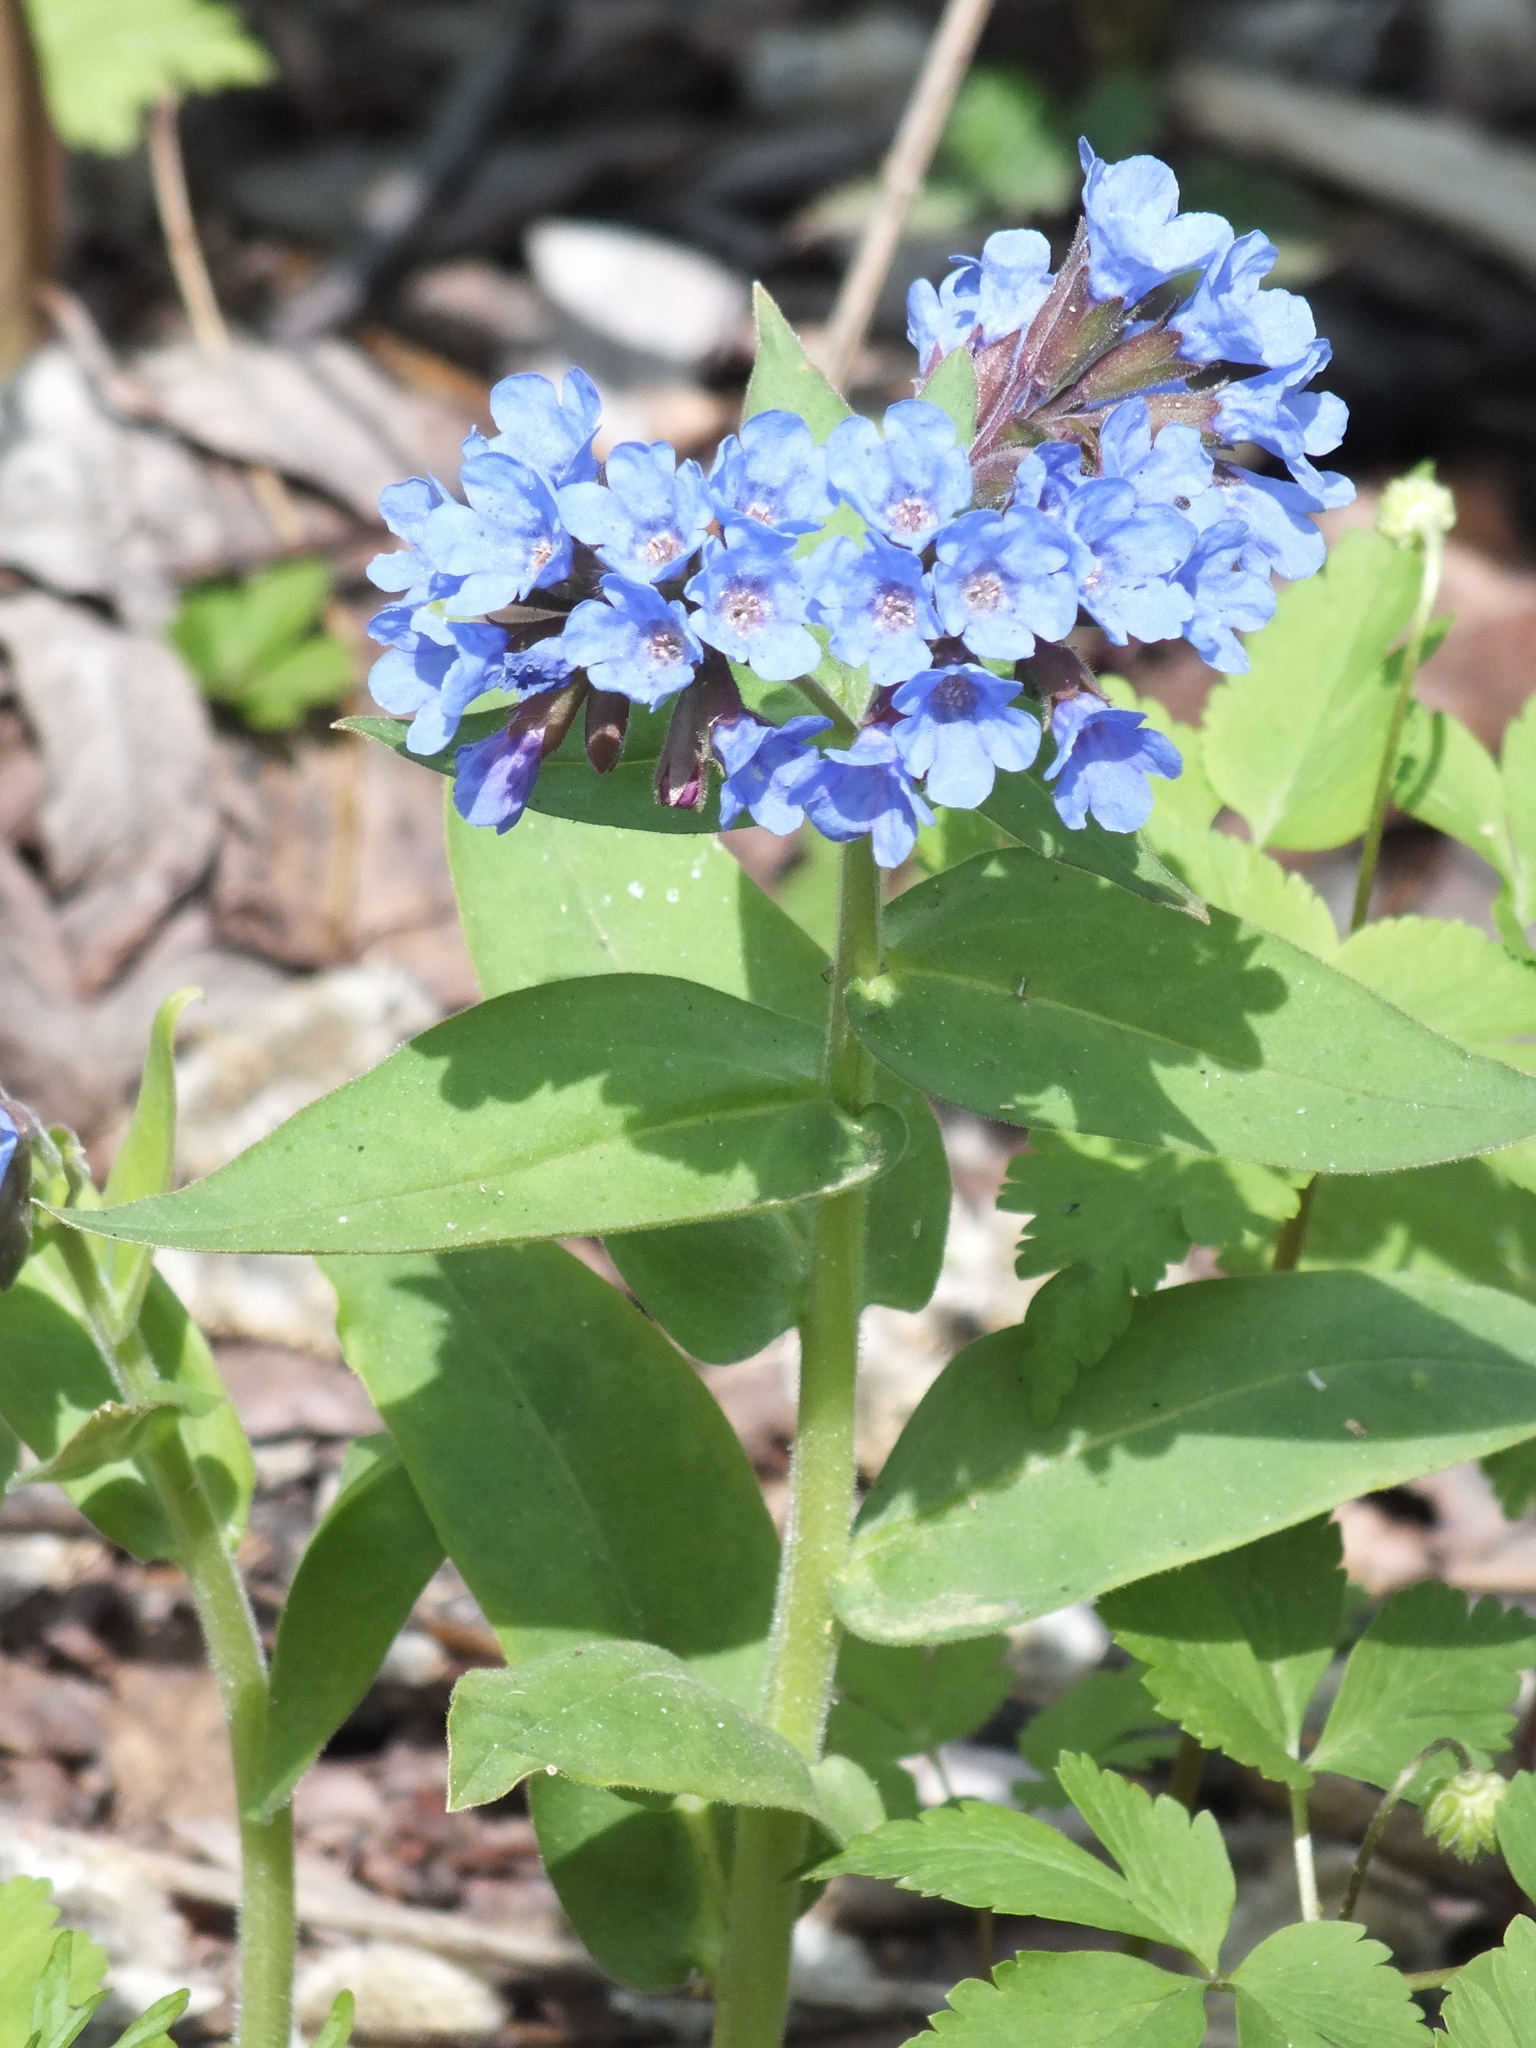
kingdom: Plantae
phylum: Tracheophyta
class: Magnoliopsida
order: Boraginales
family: Boraginaceae
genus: Pulmonaria
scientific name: Pulmonaria mollis
